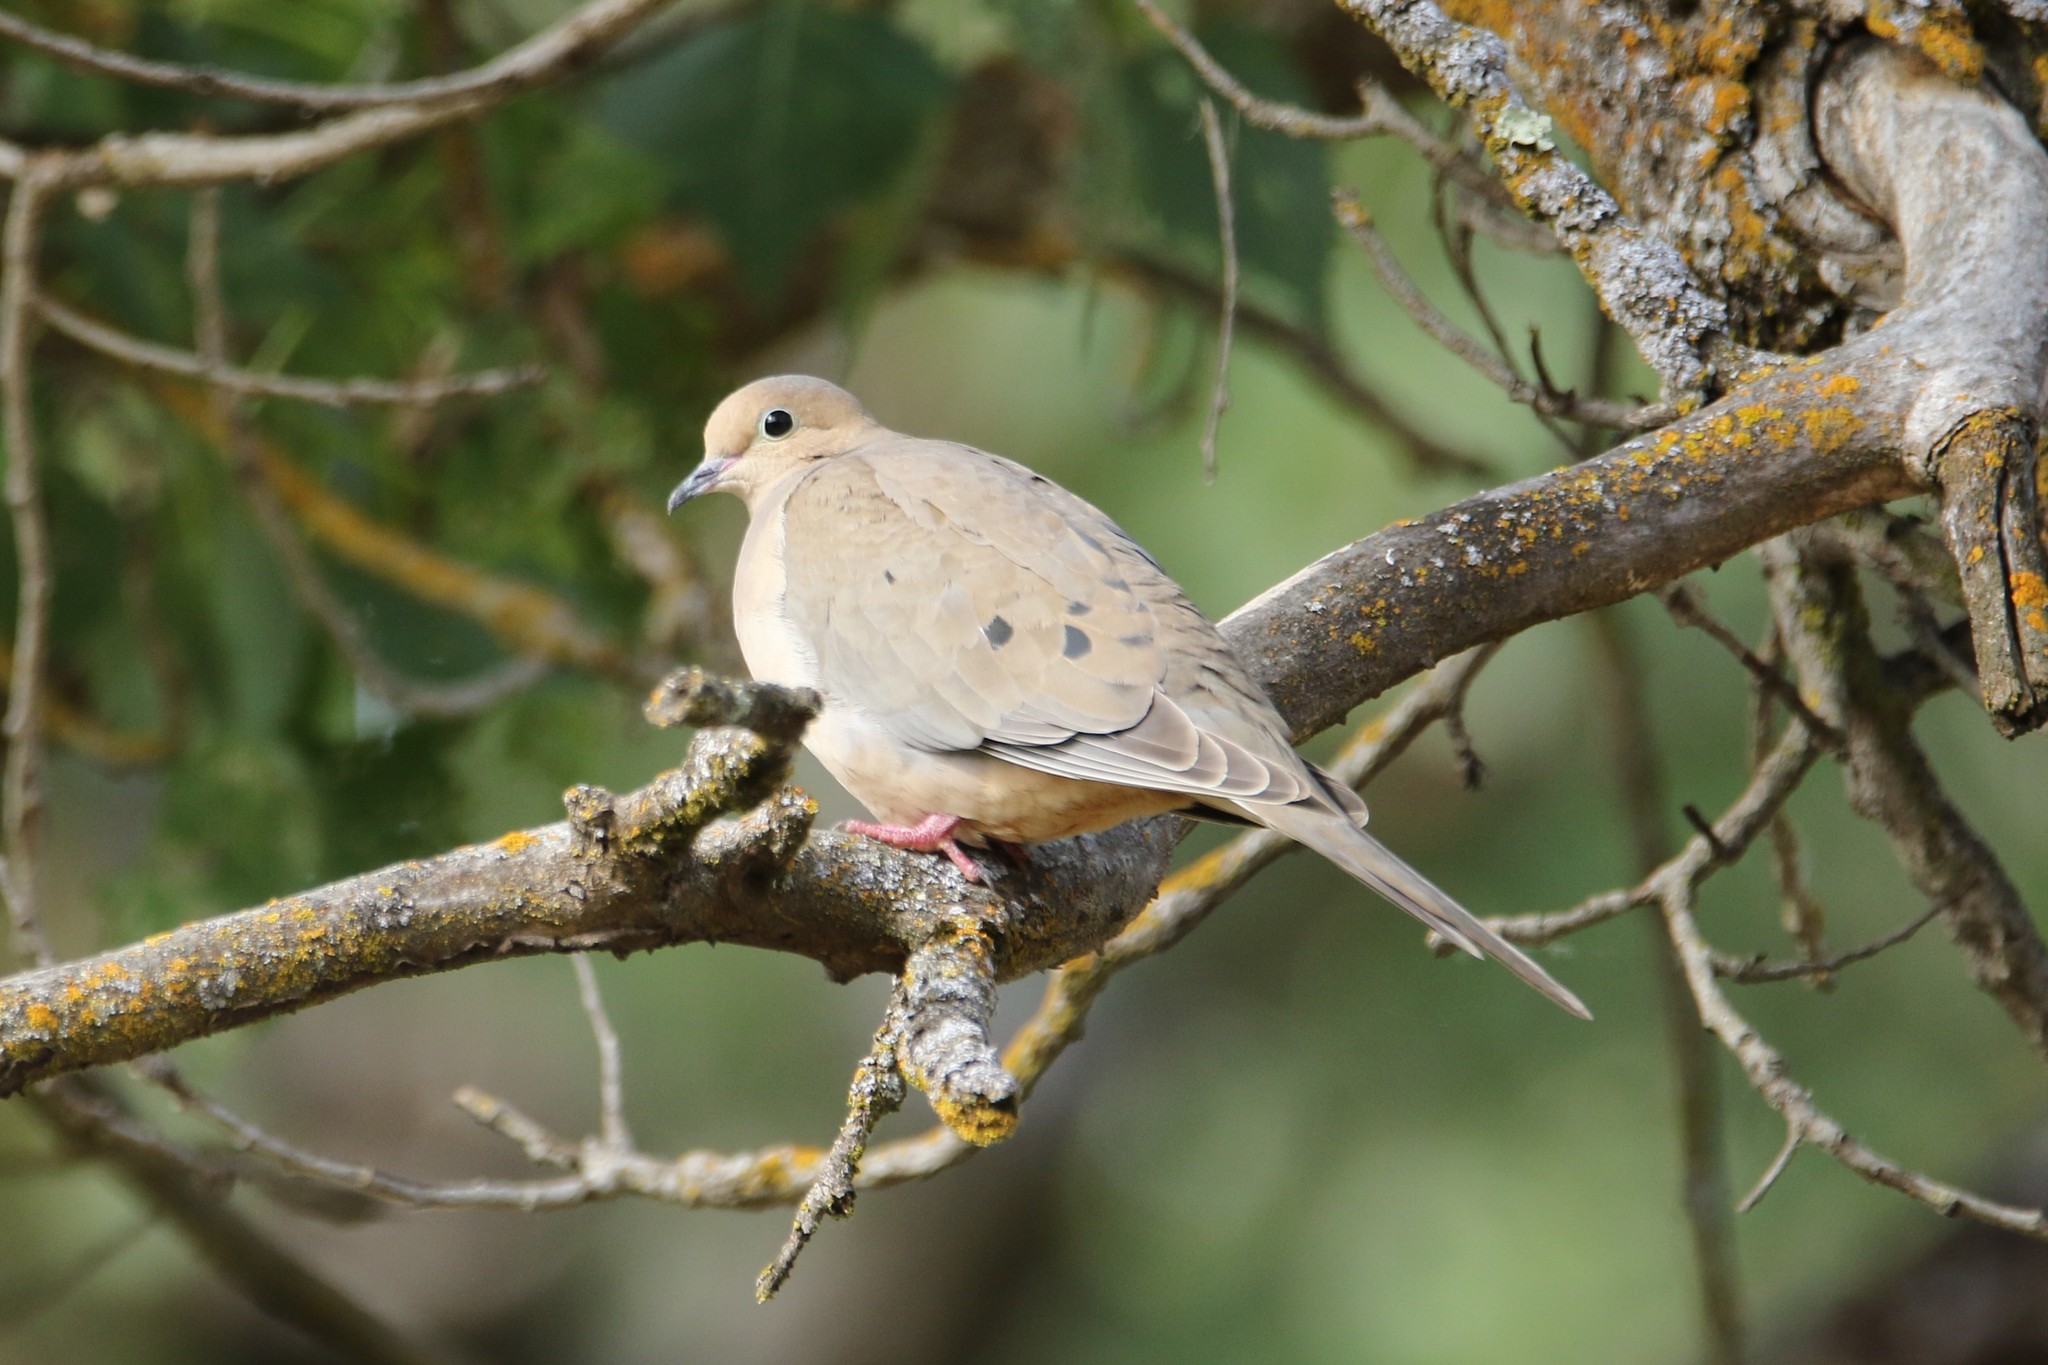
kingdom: Animalia
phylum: Chordata
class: Aves
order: Columbiformes
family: Columbidae
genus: Zenaida
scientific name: Zenaida macroura
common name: Mourning dove
